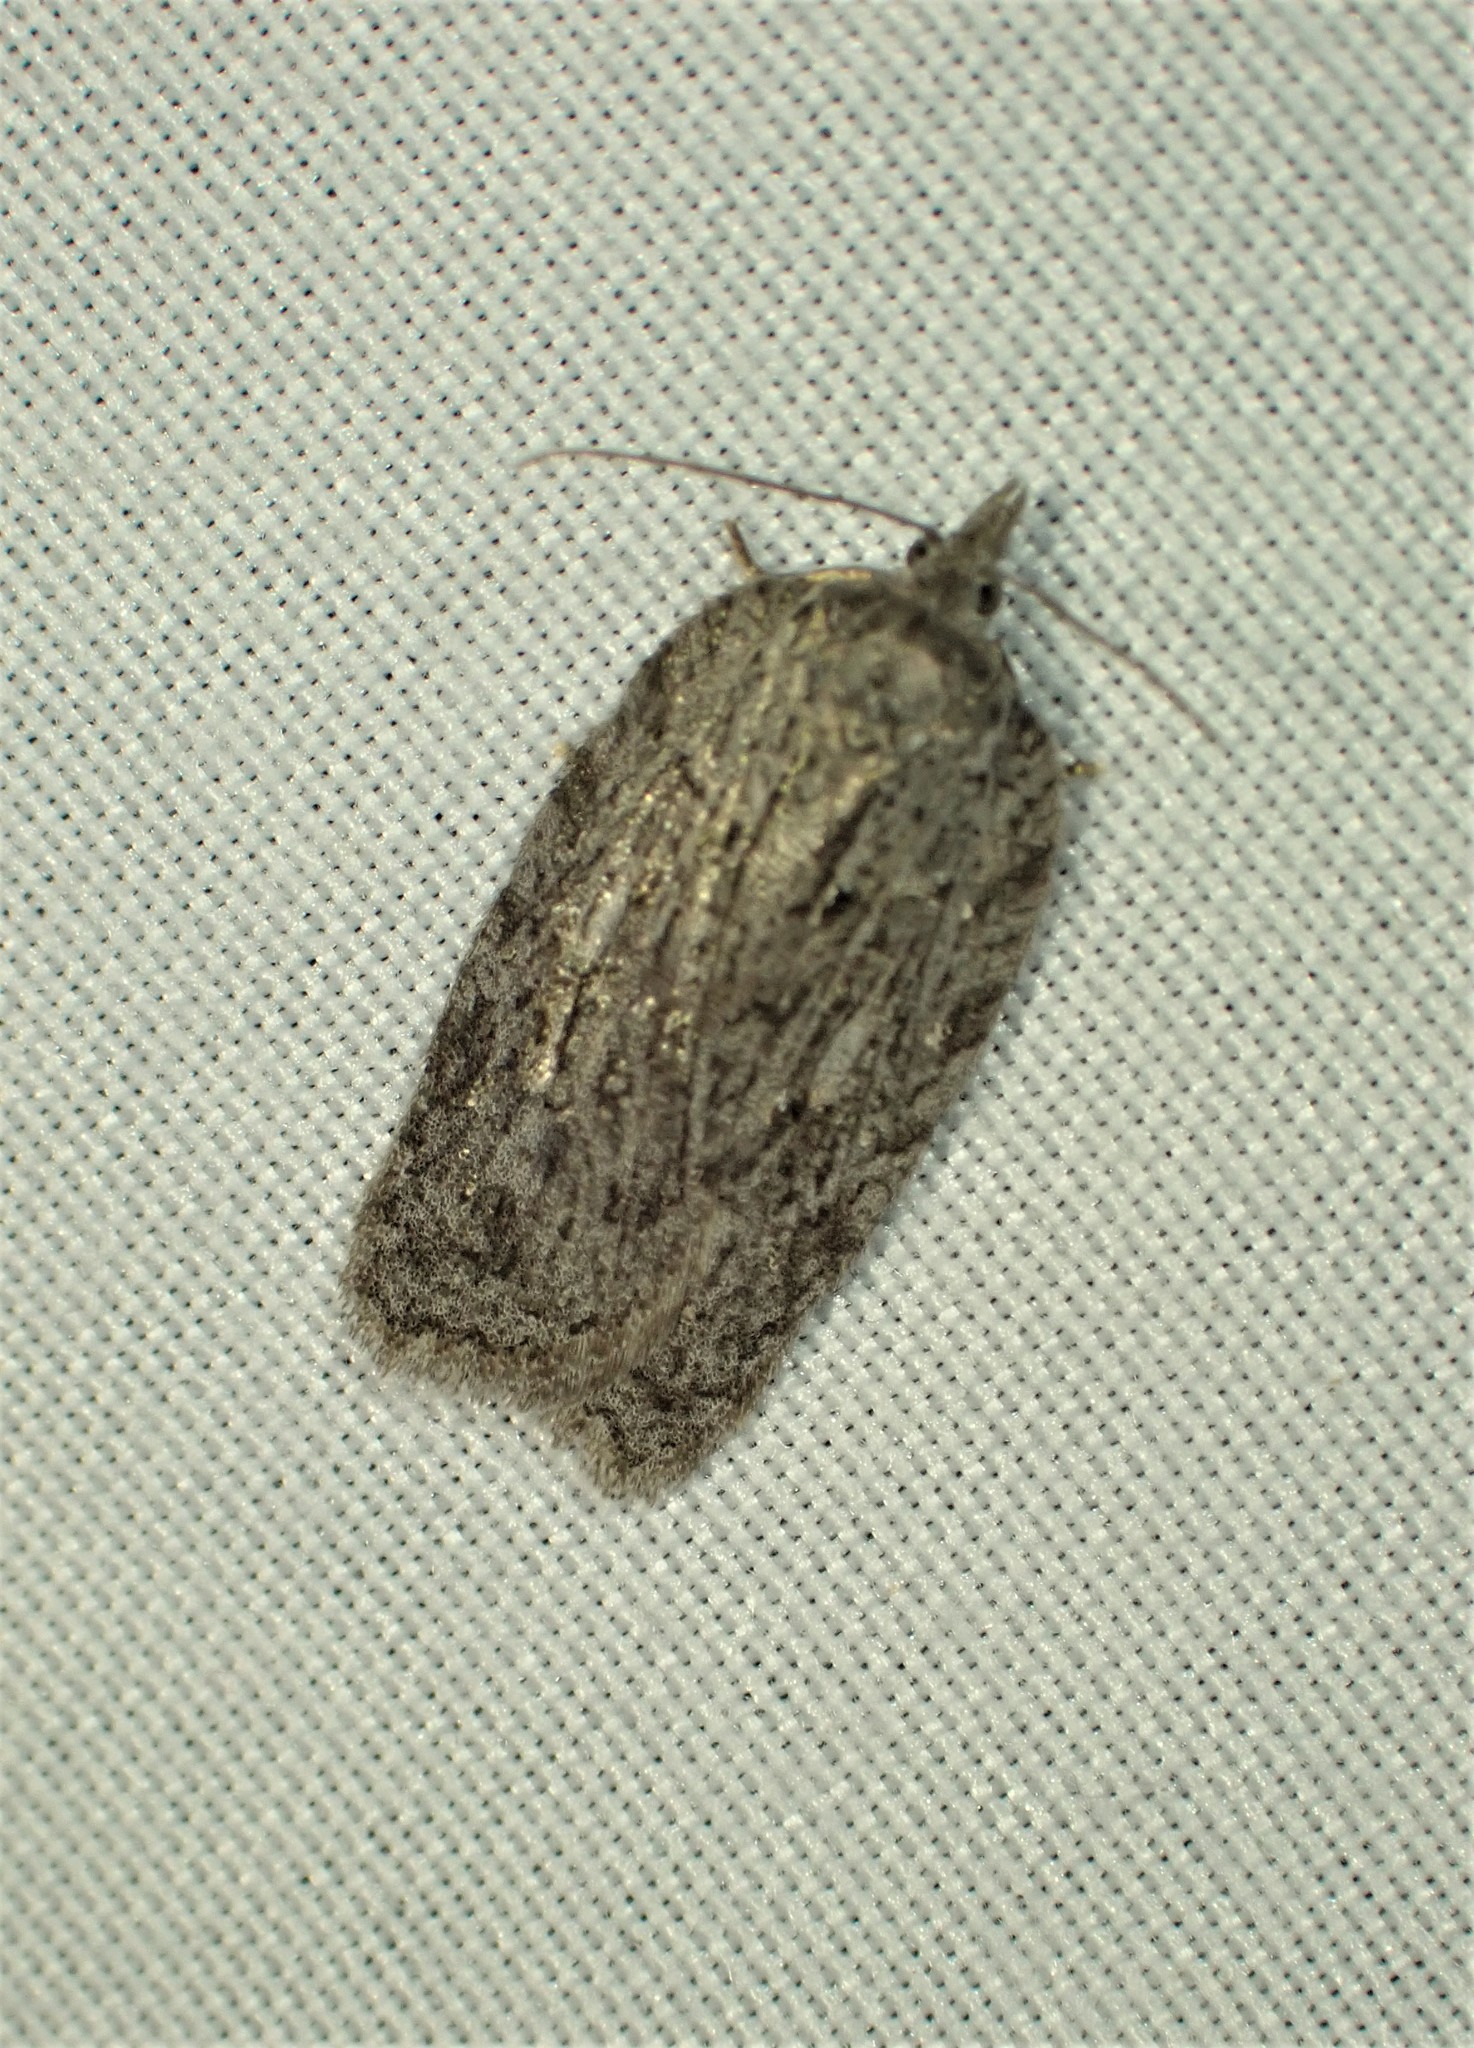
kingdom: Animalia
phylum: Arthropoda
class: Insecta
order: Lepidoptera
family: Tortricidae
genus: Acleris
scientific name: Acleris maximana
